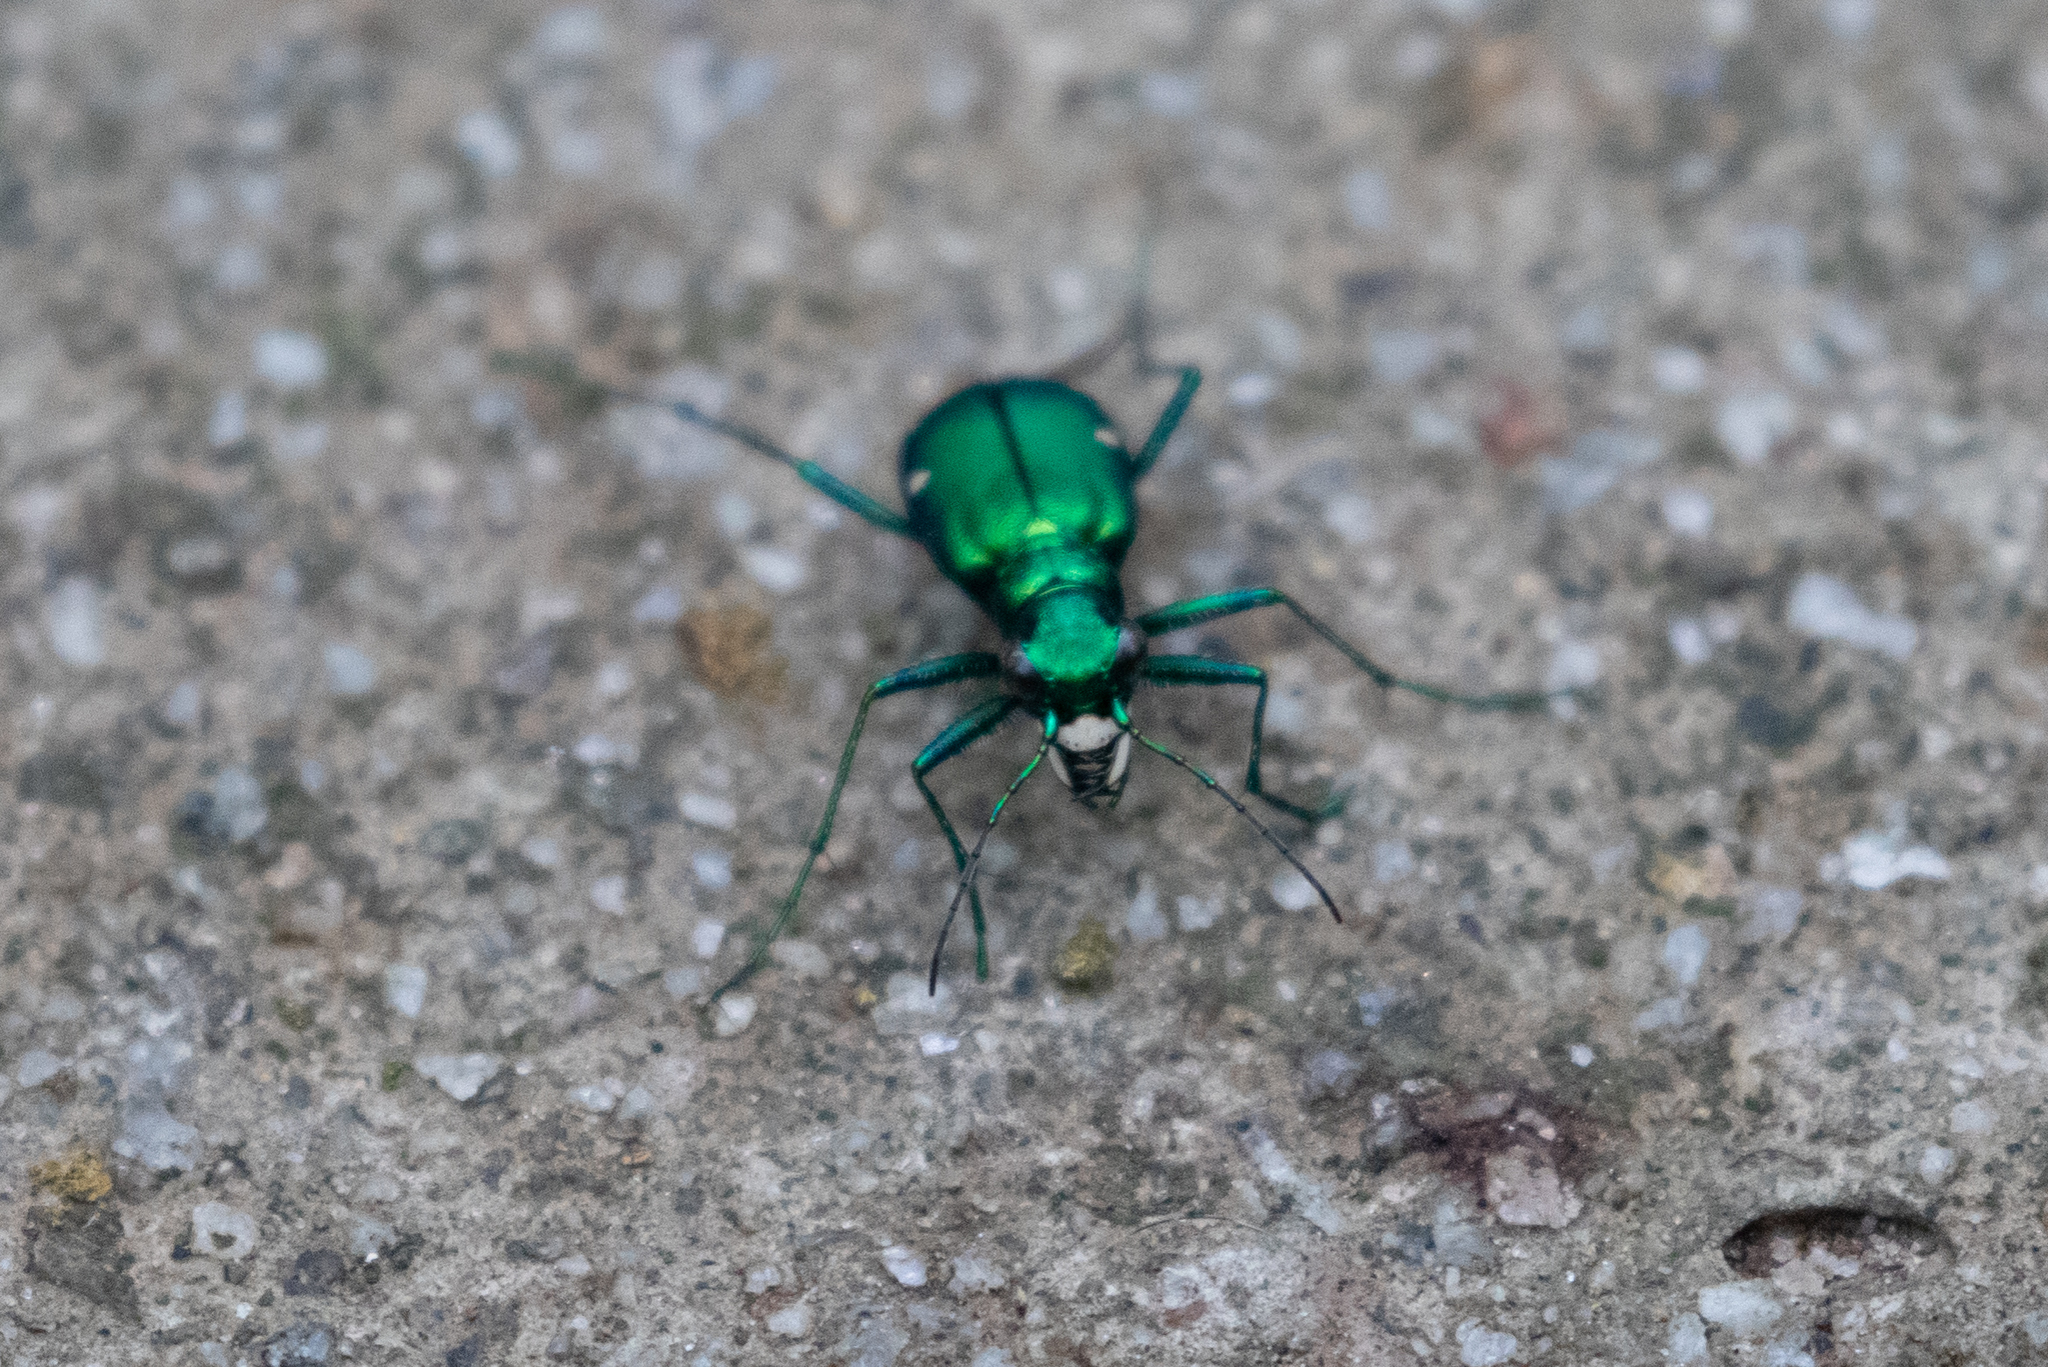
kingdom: Animalia
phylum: Arthropoda
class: Insecta
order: Coleoptera
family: Carabidae
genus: Cicindela
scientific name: Cicindela sexguttata
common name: Six-spotted tiger beetle
